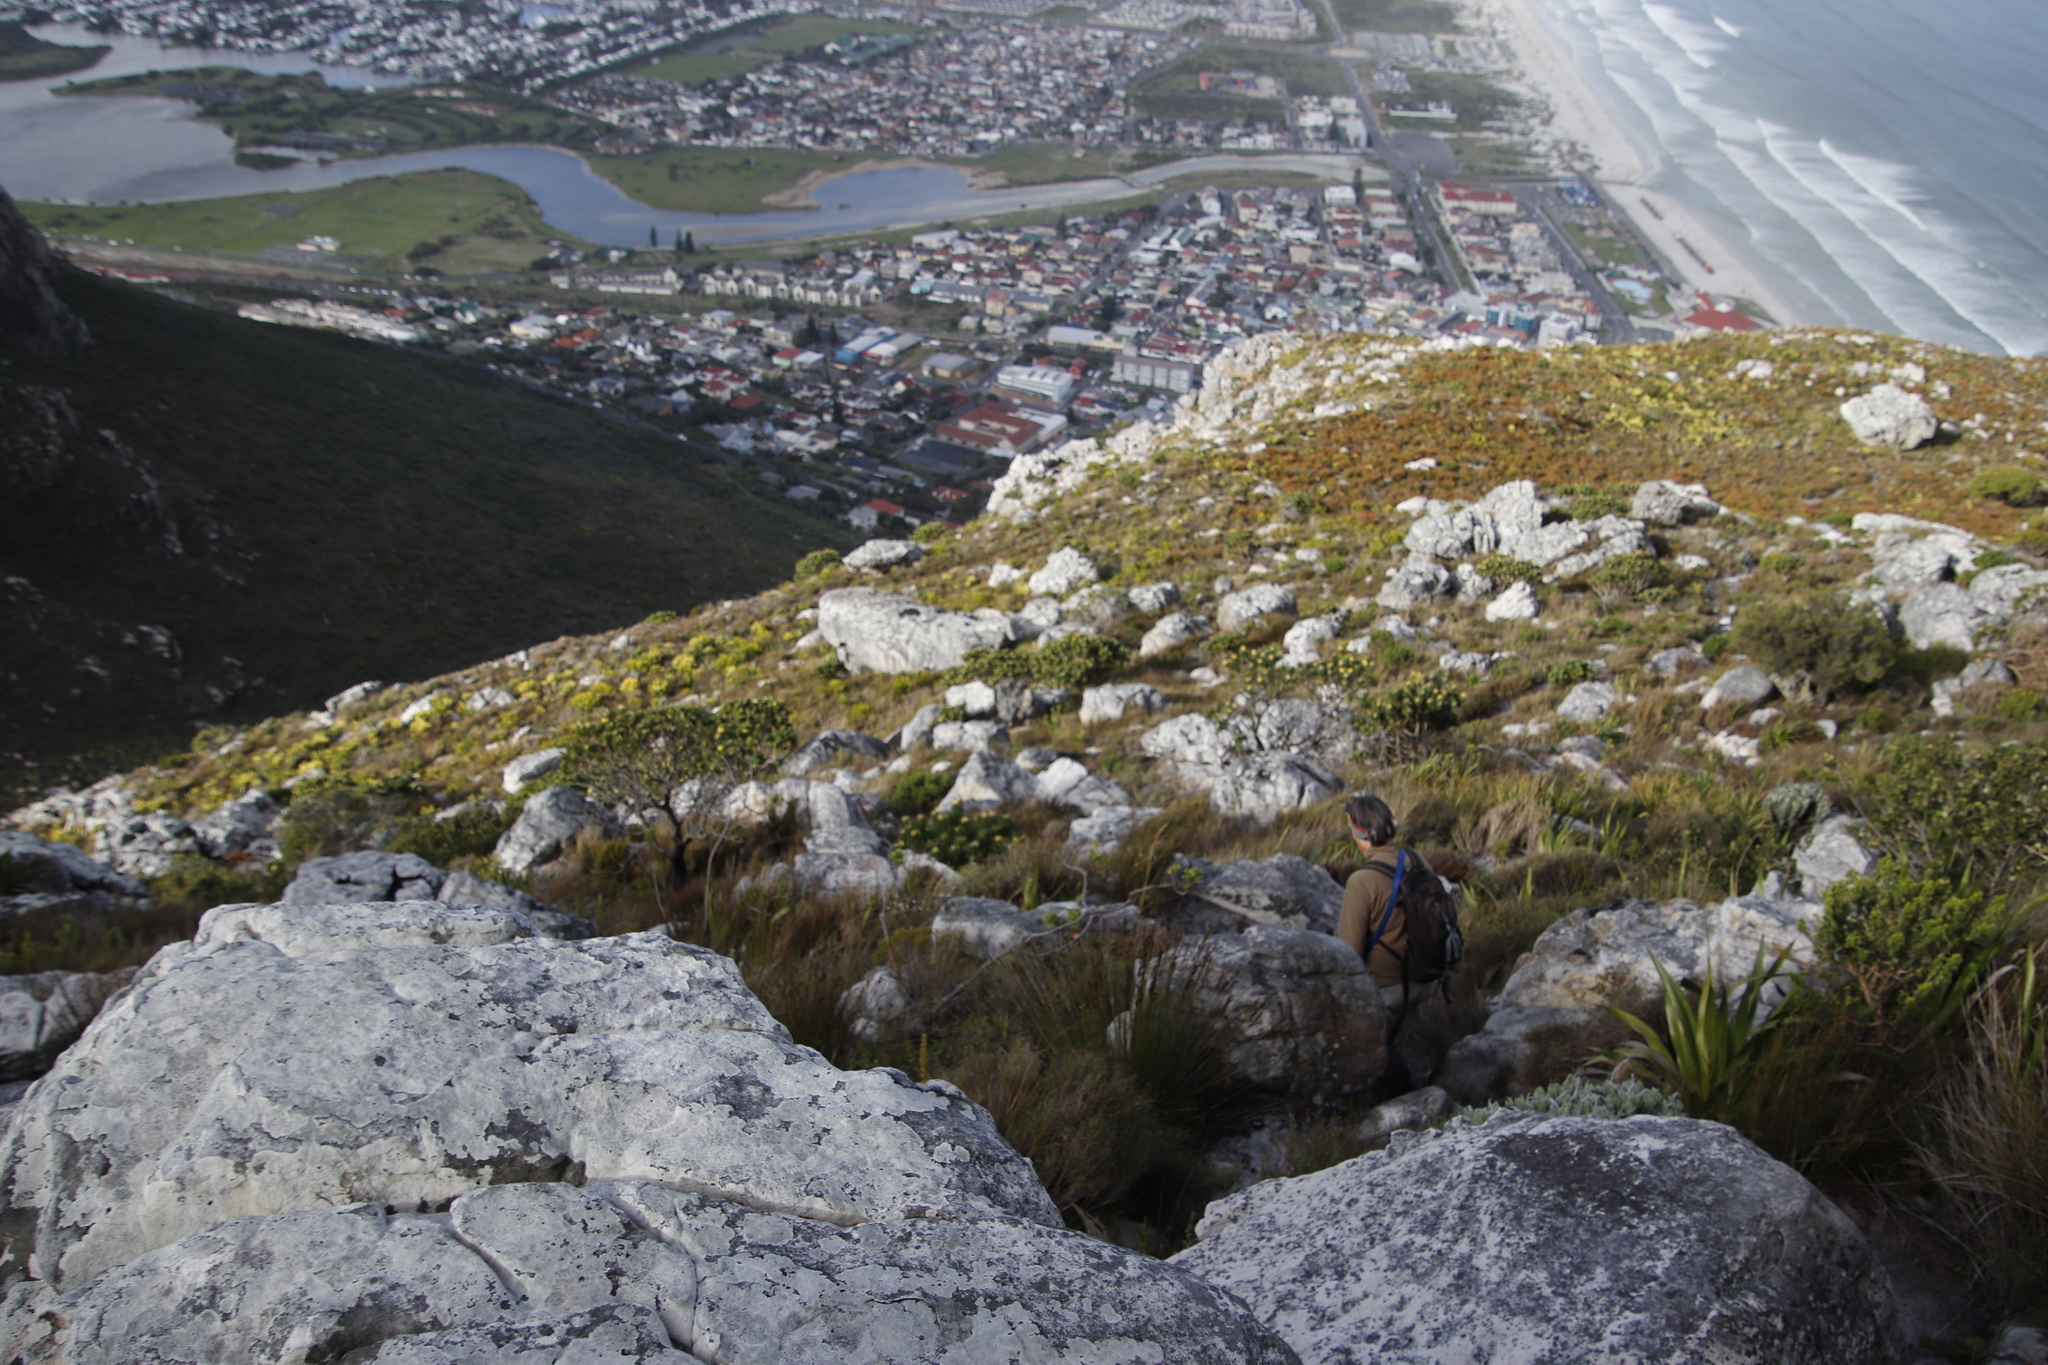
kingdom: Plantae
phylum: Tracheophyta
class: Magnoliopsida
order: Proteales
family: Proteaceae
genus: Leucospermum
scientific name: Leucospermum conocarpodendron
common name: Tree pincushion
